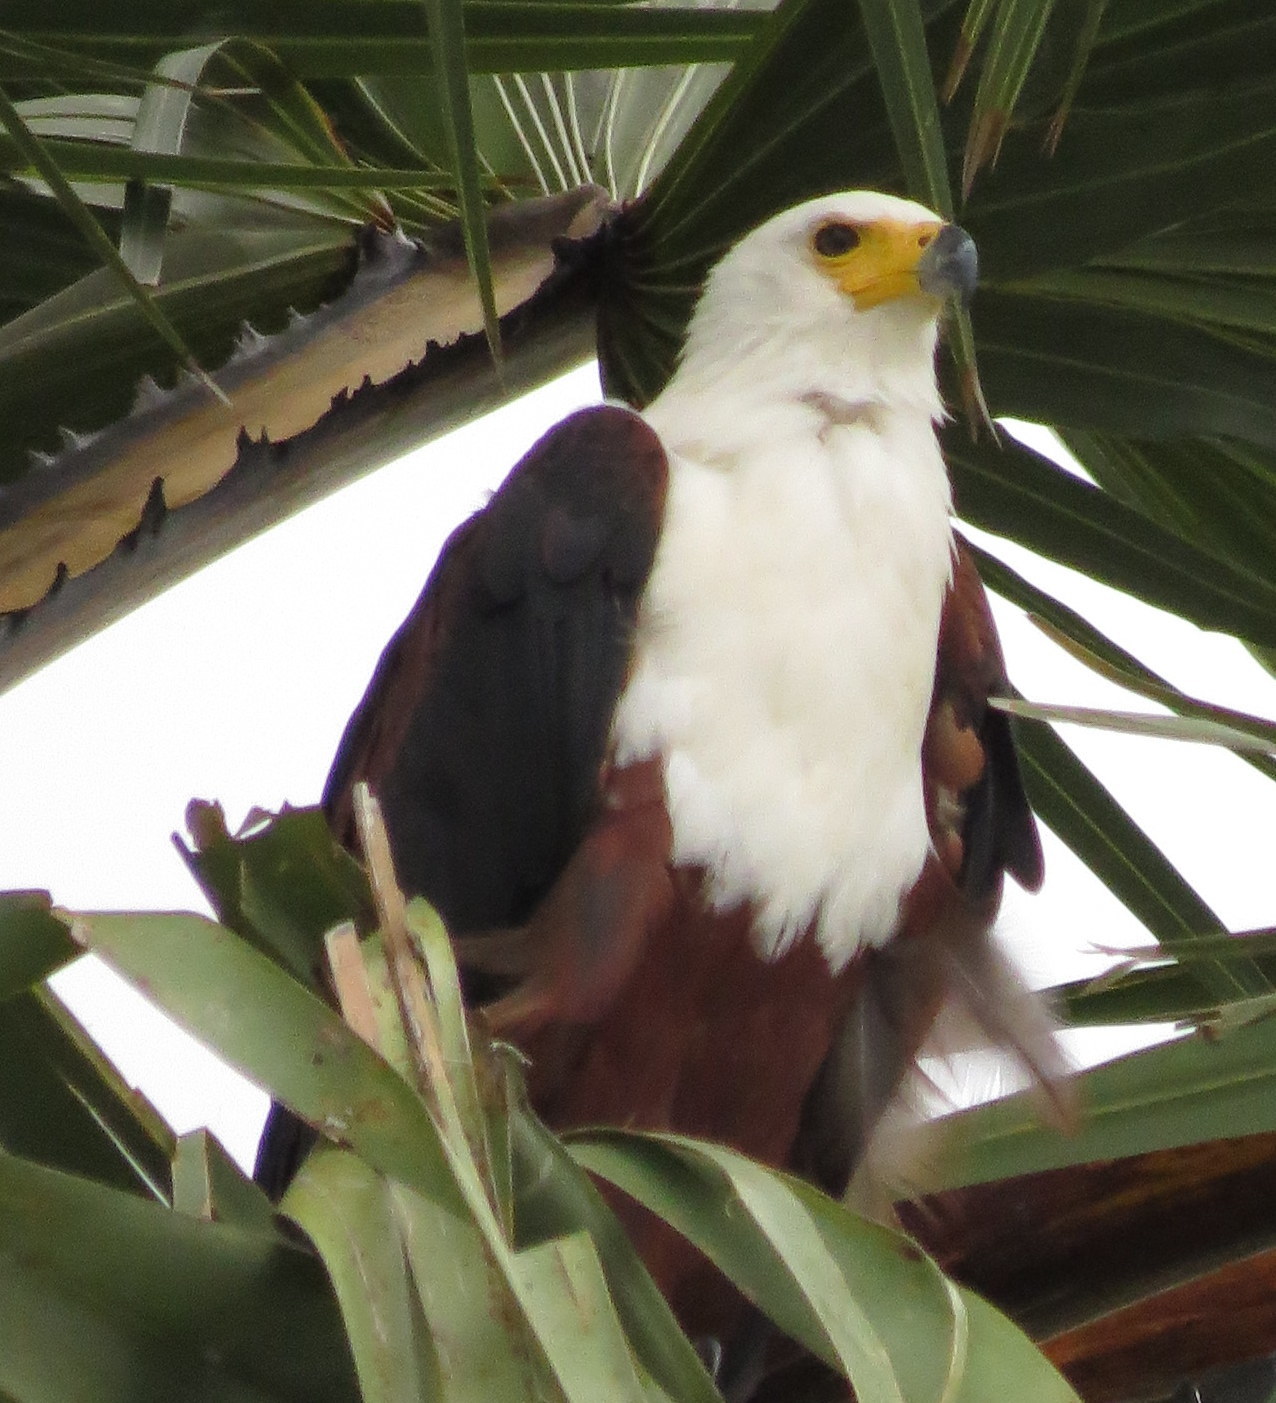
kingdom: Animalia
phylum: Chordata
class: Aves
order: Accipitriformes
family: Accipitridae
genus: Haliaeetus
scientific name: Haliaeetus vocifer
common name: African fish eagle
